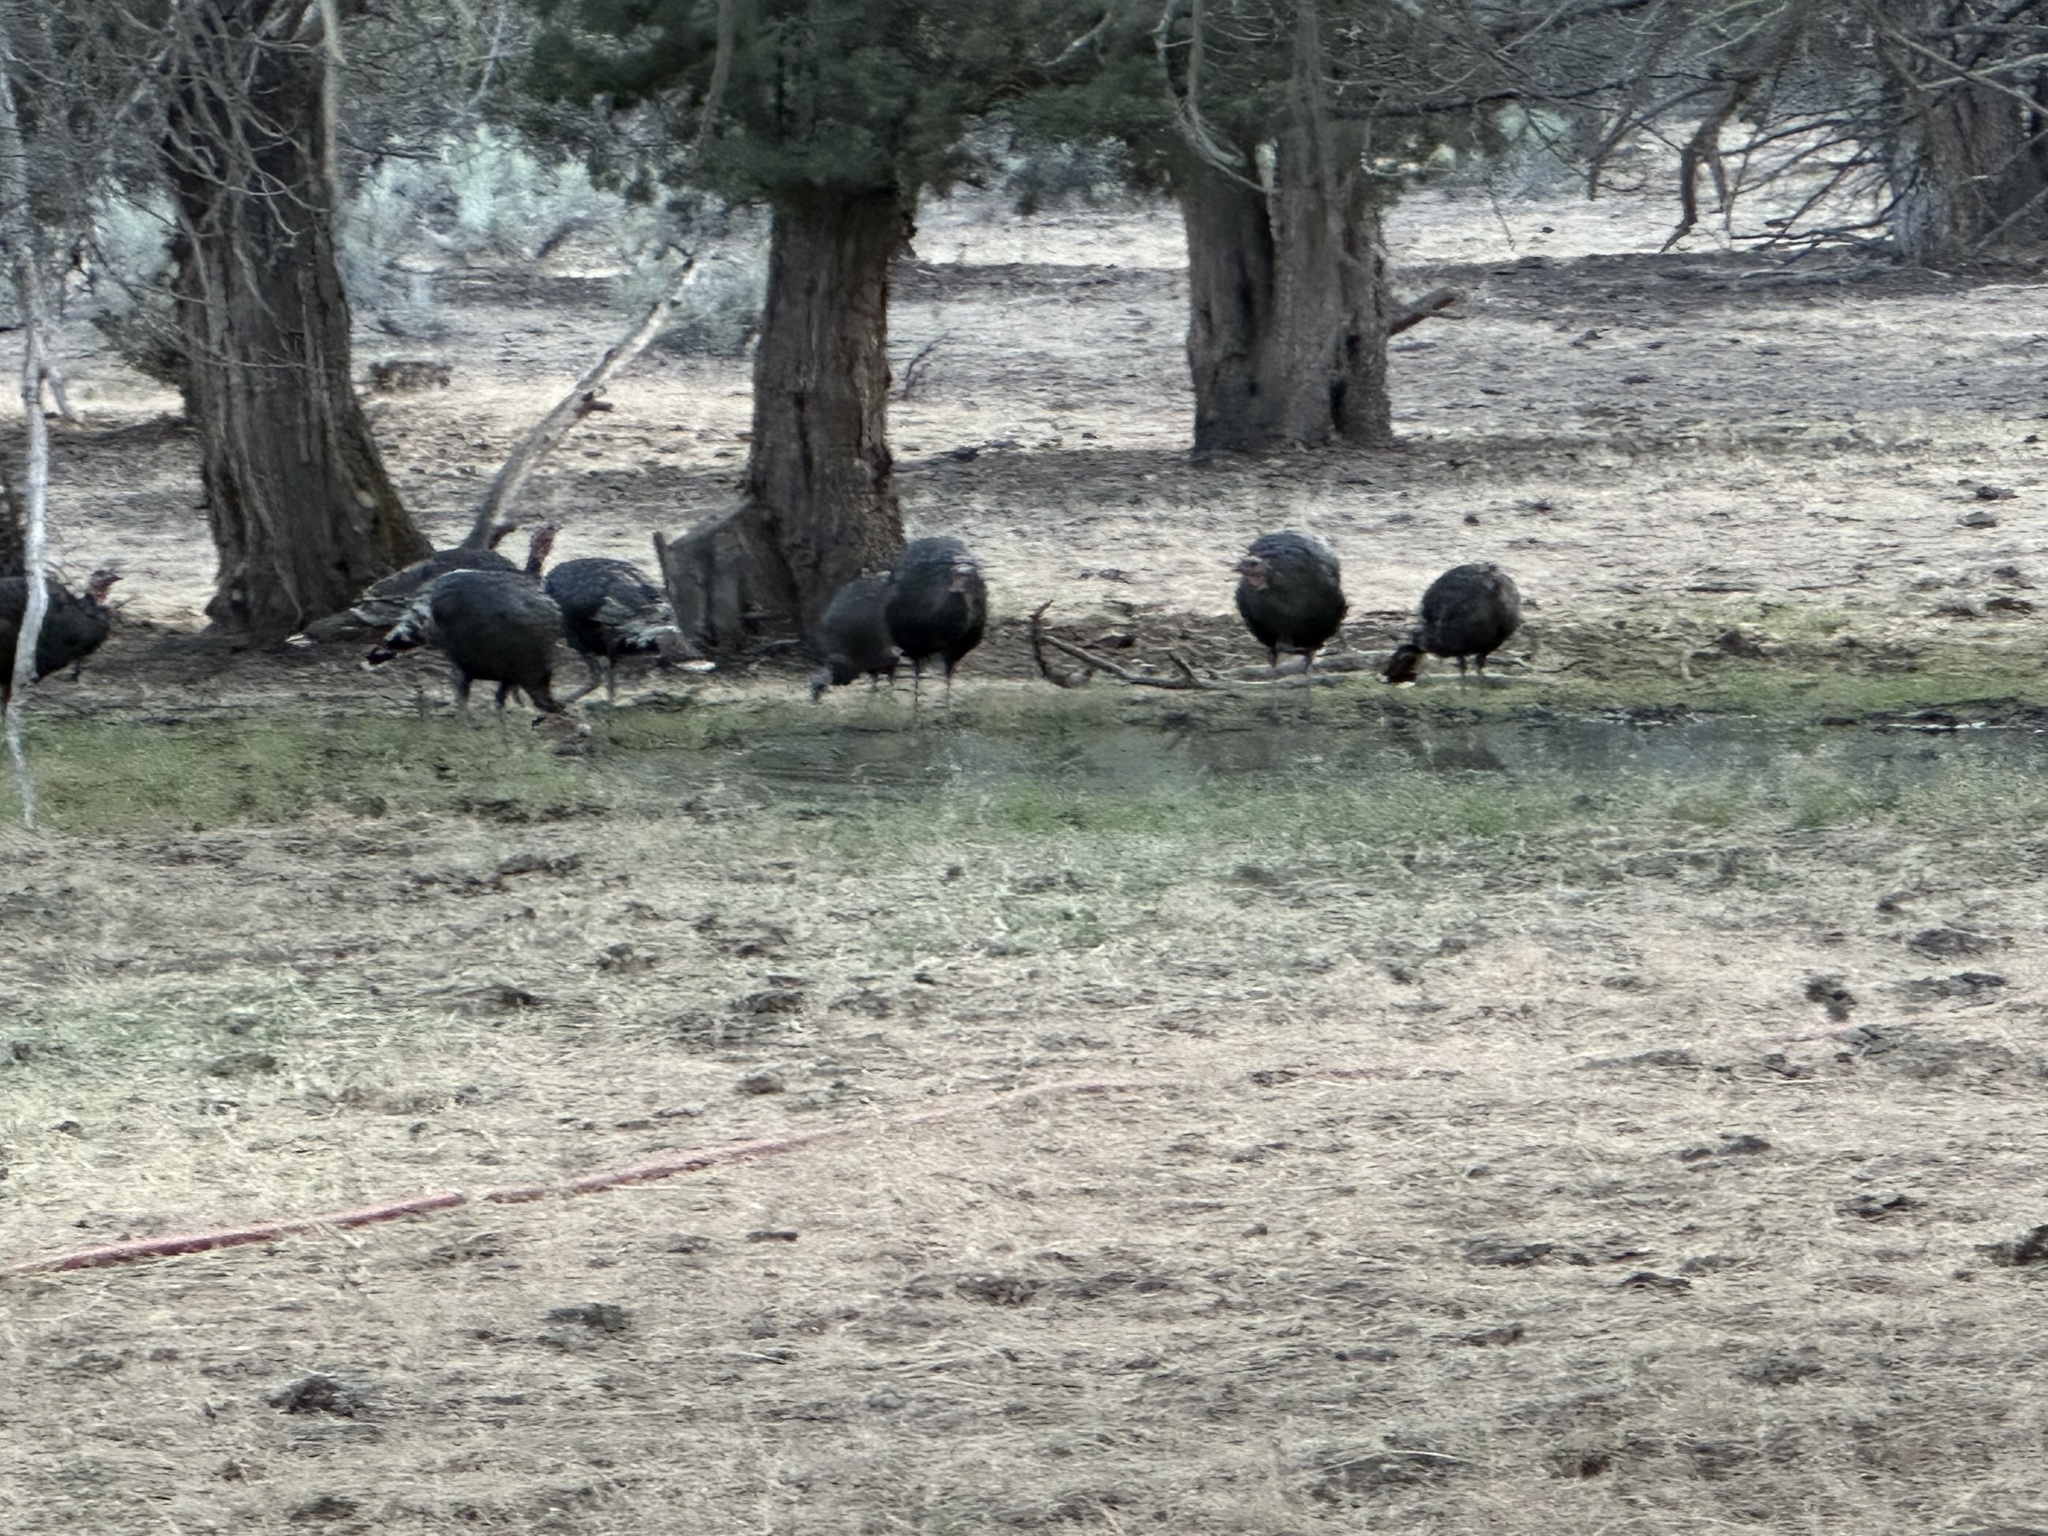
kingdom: Animalia
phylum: Chordata
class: Aves
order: Galliformes
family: Phasianidae
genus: Meleagris
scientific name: Meleagris gallopavo
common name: Wild turkey
